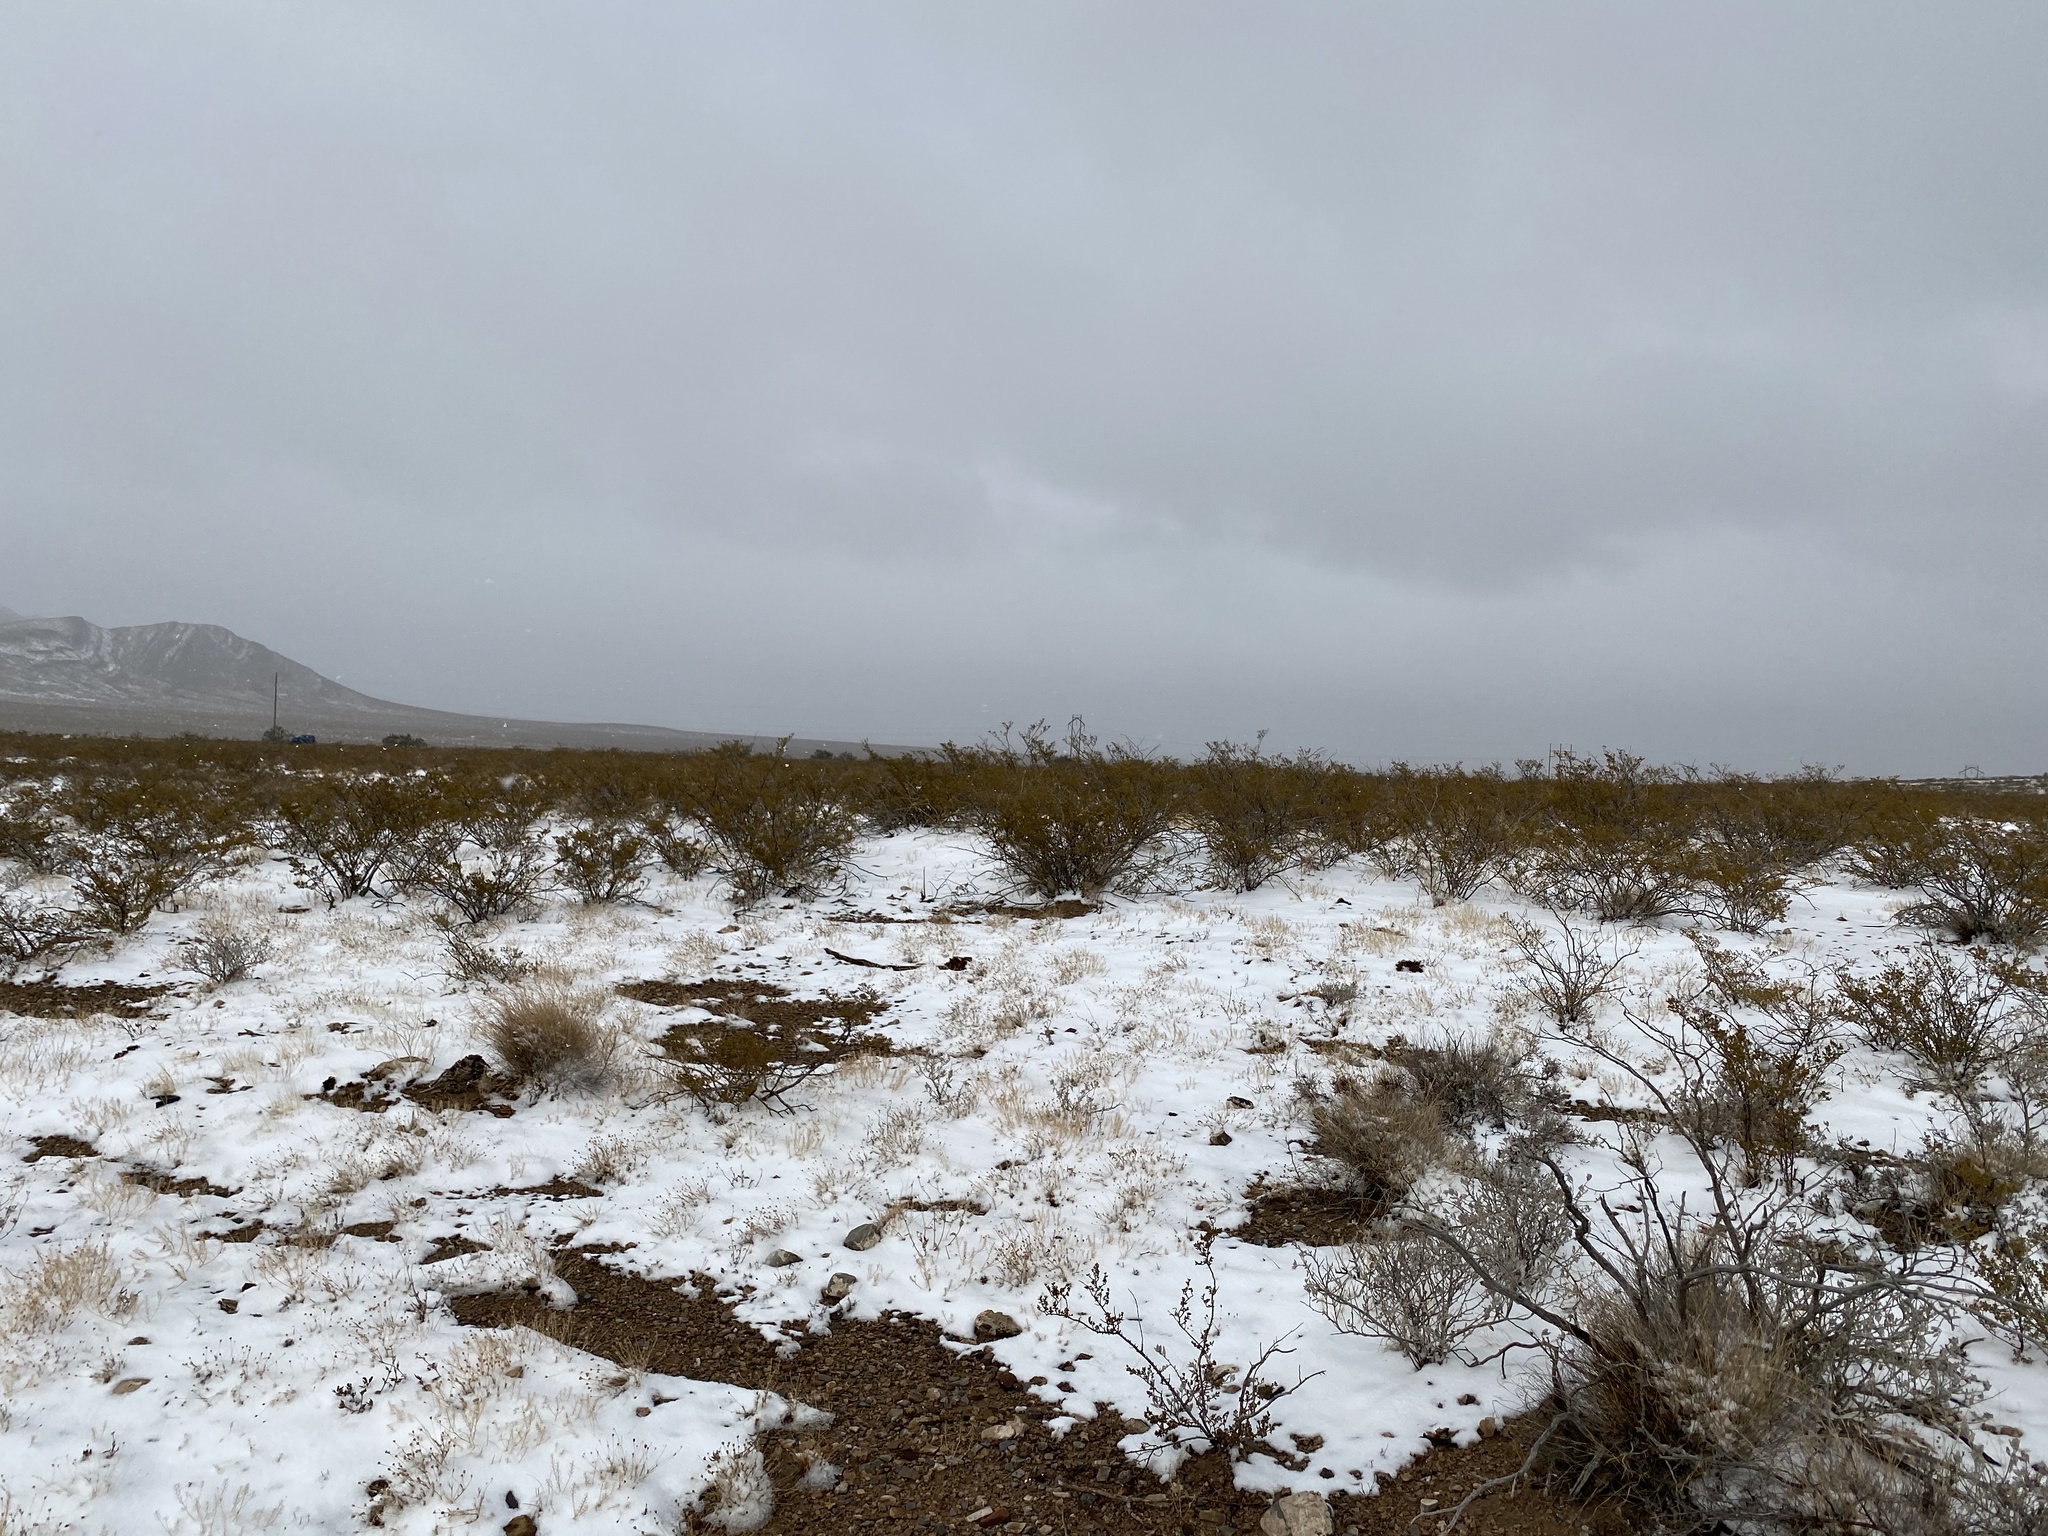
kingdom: Plantae
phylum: Tracheophyta
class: Magnoliopsida
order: Zygophyllales
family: Zygophyllaceae
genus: Larrea
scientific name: Larrea tridentata
